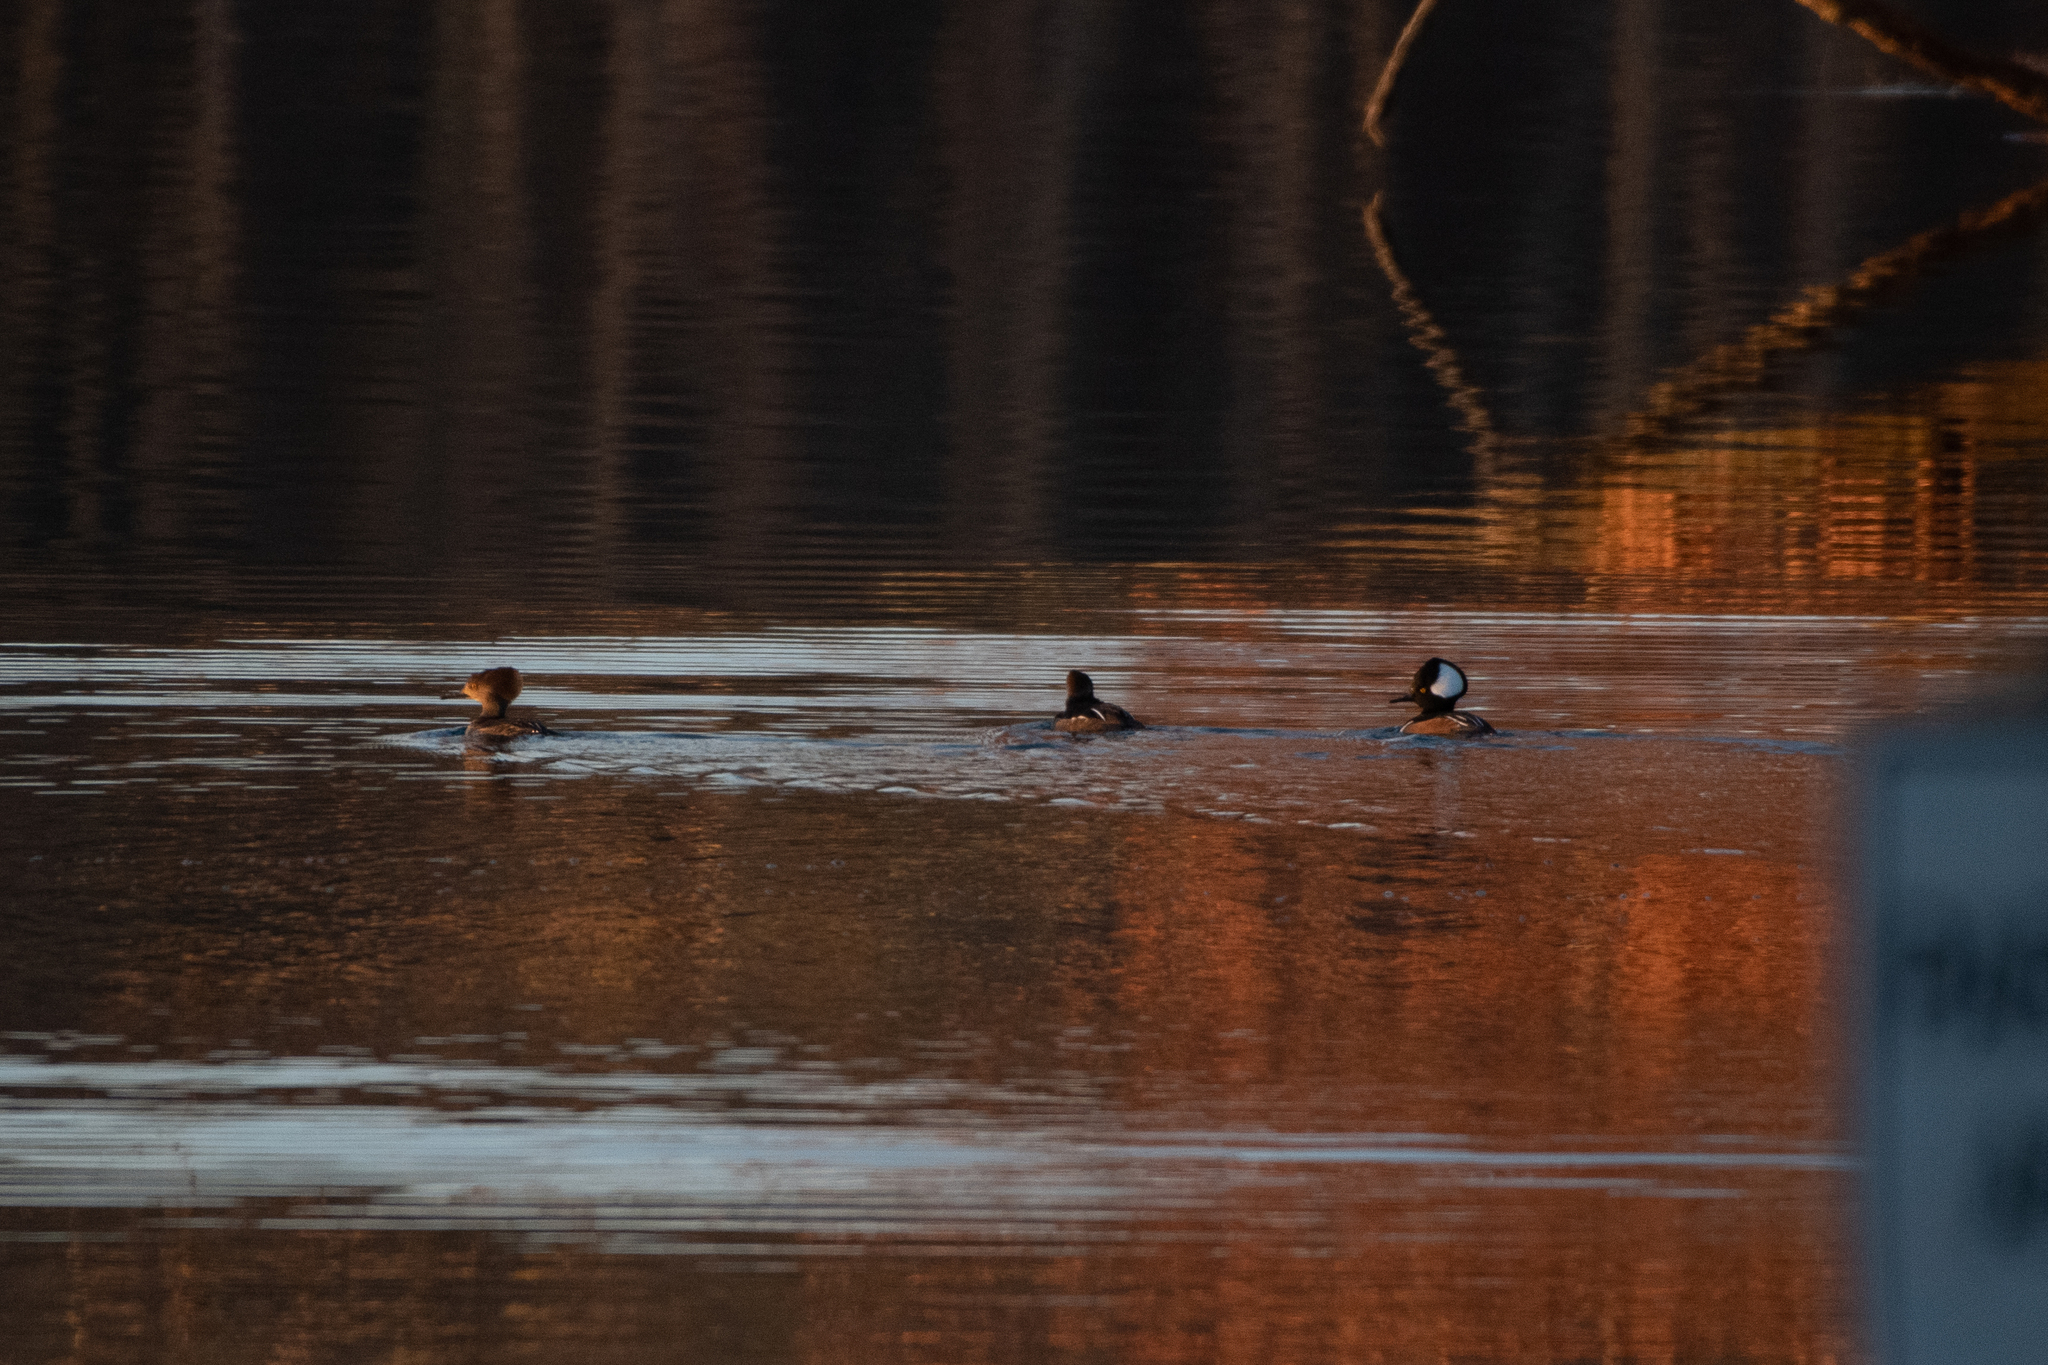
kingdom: Animalia
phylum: Chordata
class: Aves
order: Anseriformes
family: Anatidae
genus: Lophodytes
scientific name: Lophodytes cucullatus
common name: Hooded merganser
